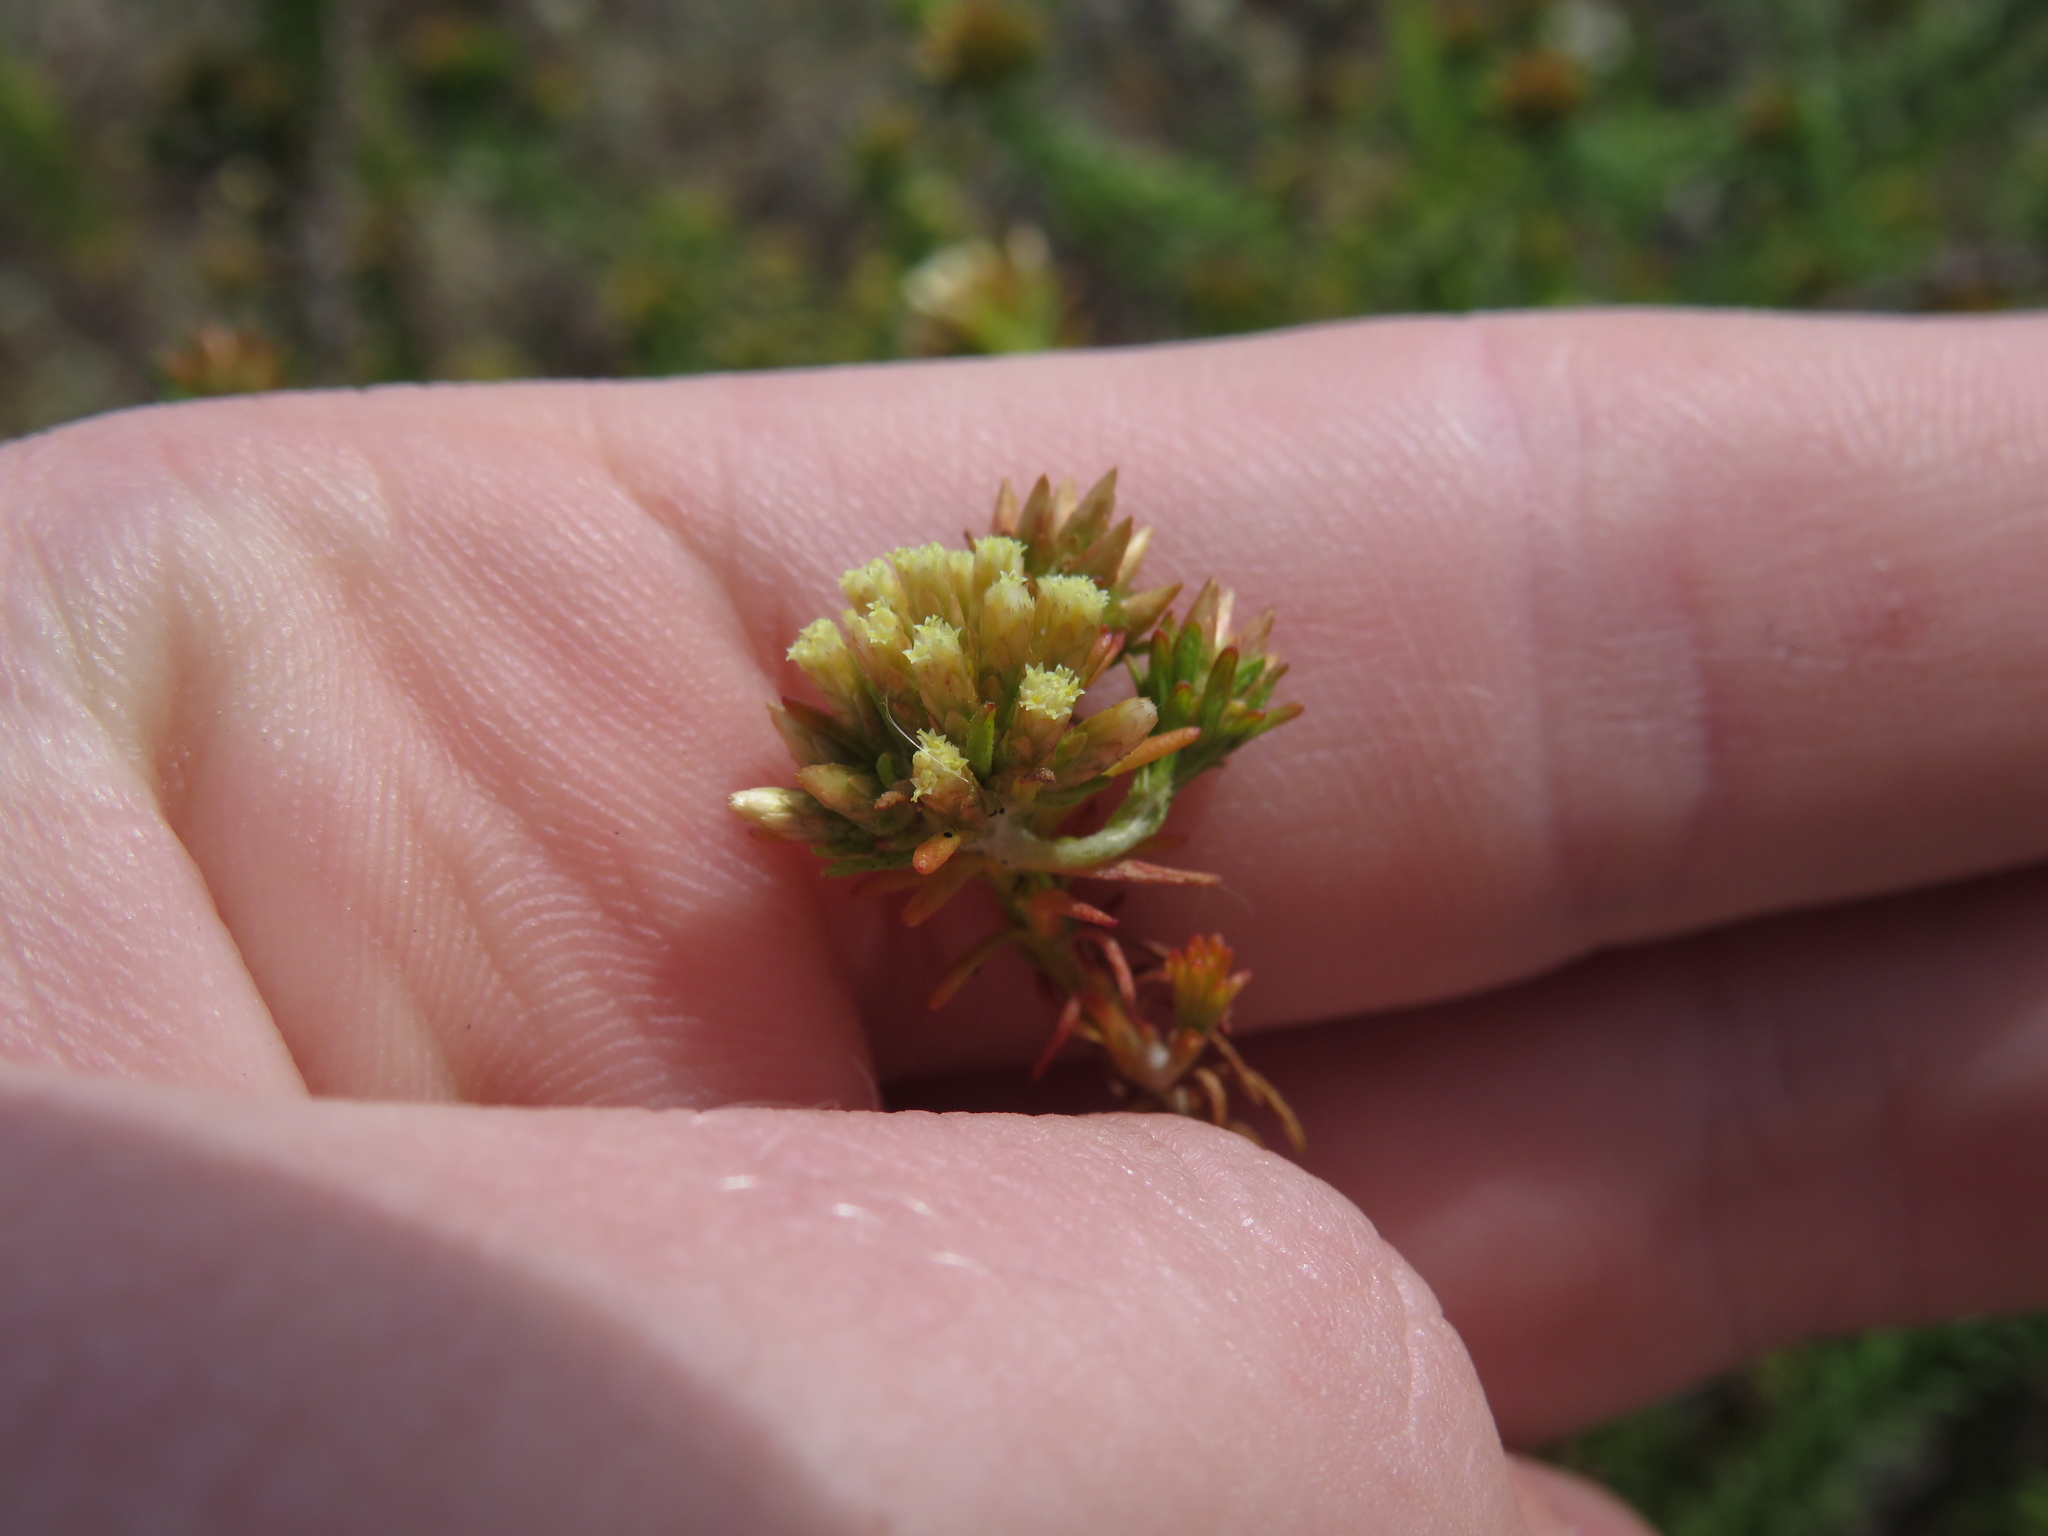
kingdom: Plantae
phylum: Tracheophyta
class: Magnoliopsida
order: Asterales
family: Asteraceae
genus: Helichrysum
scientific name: Helichrysum niveum
